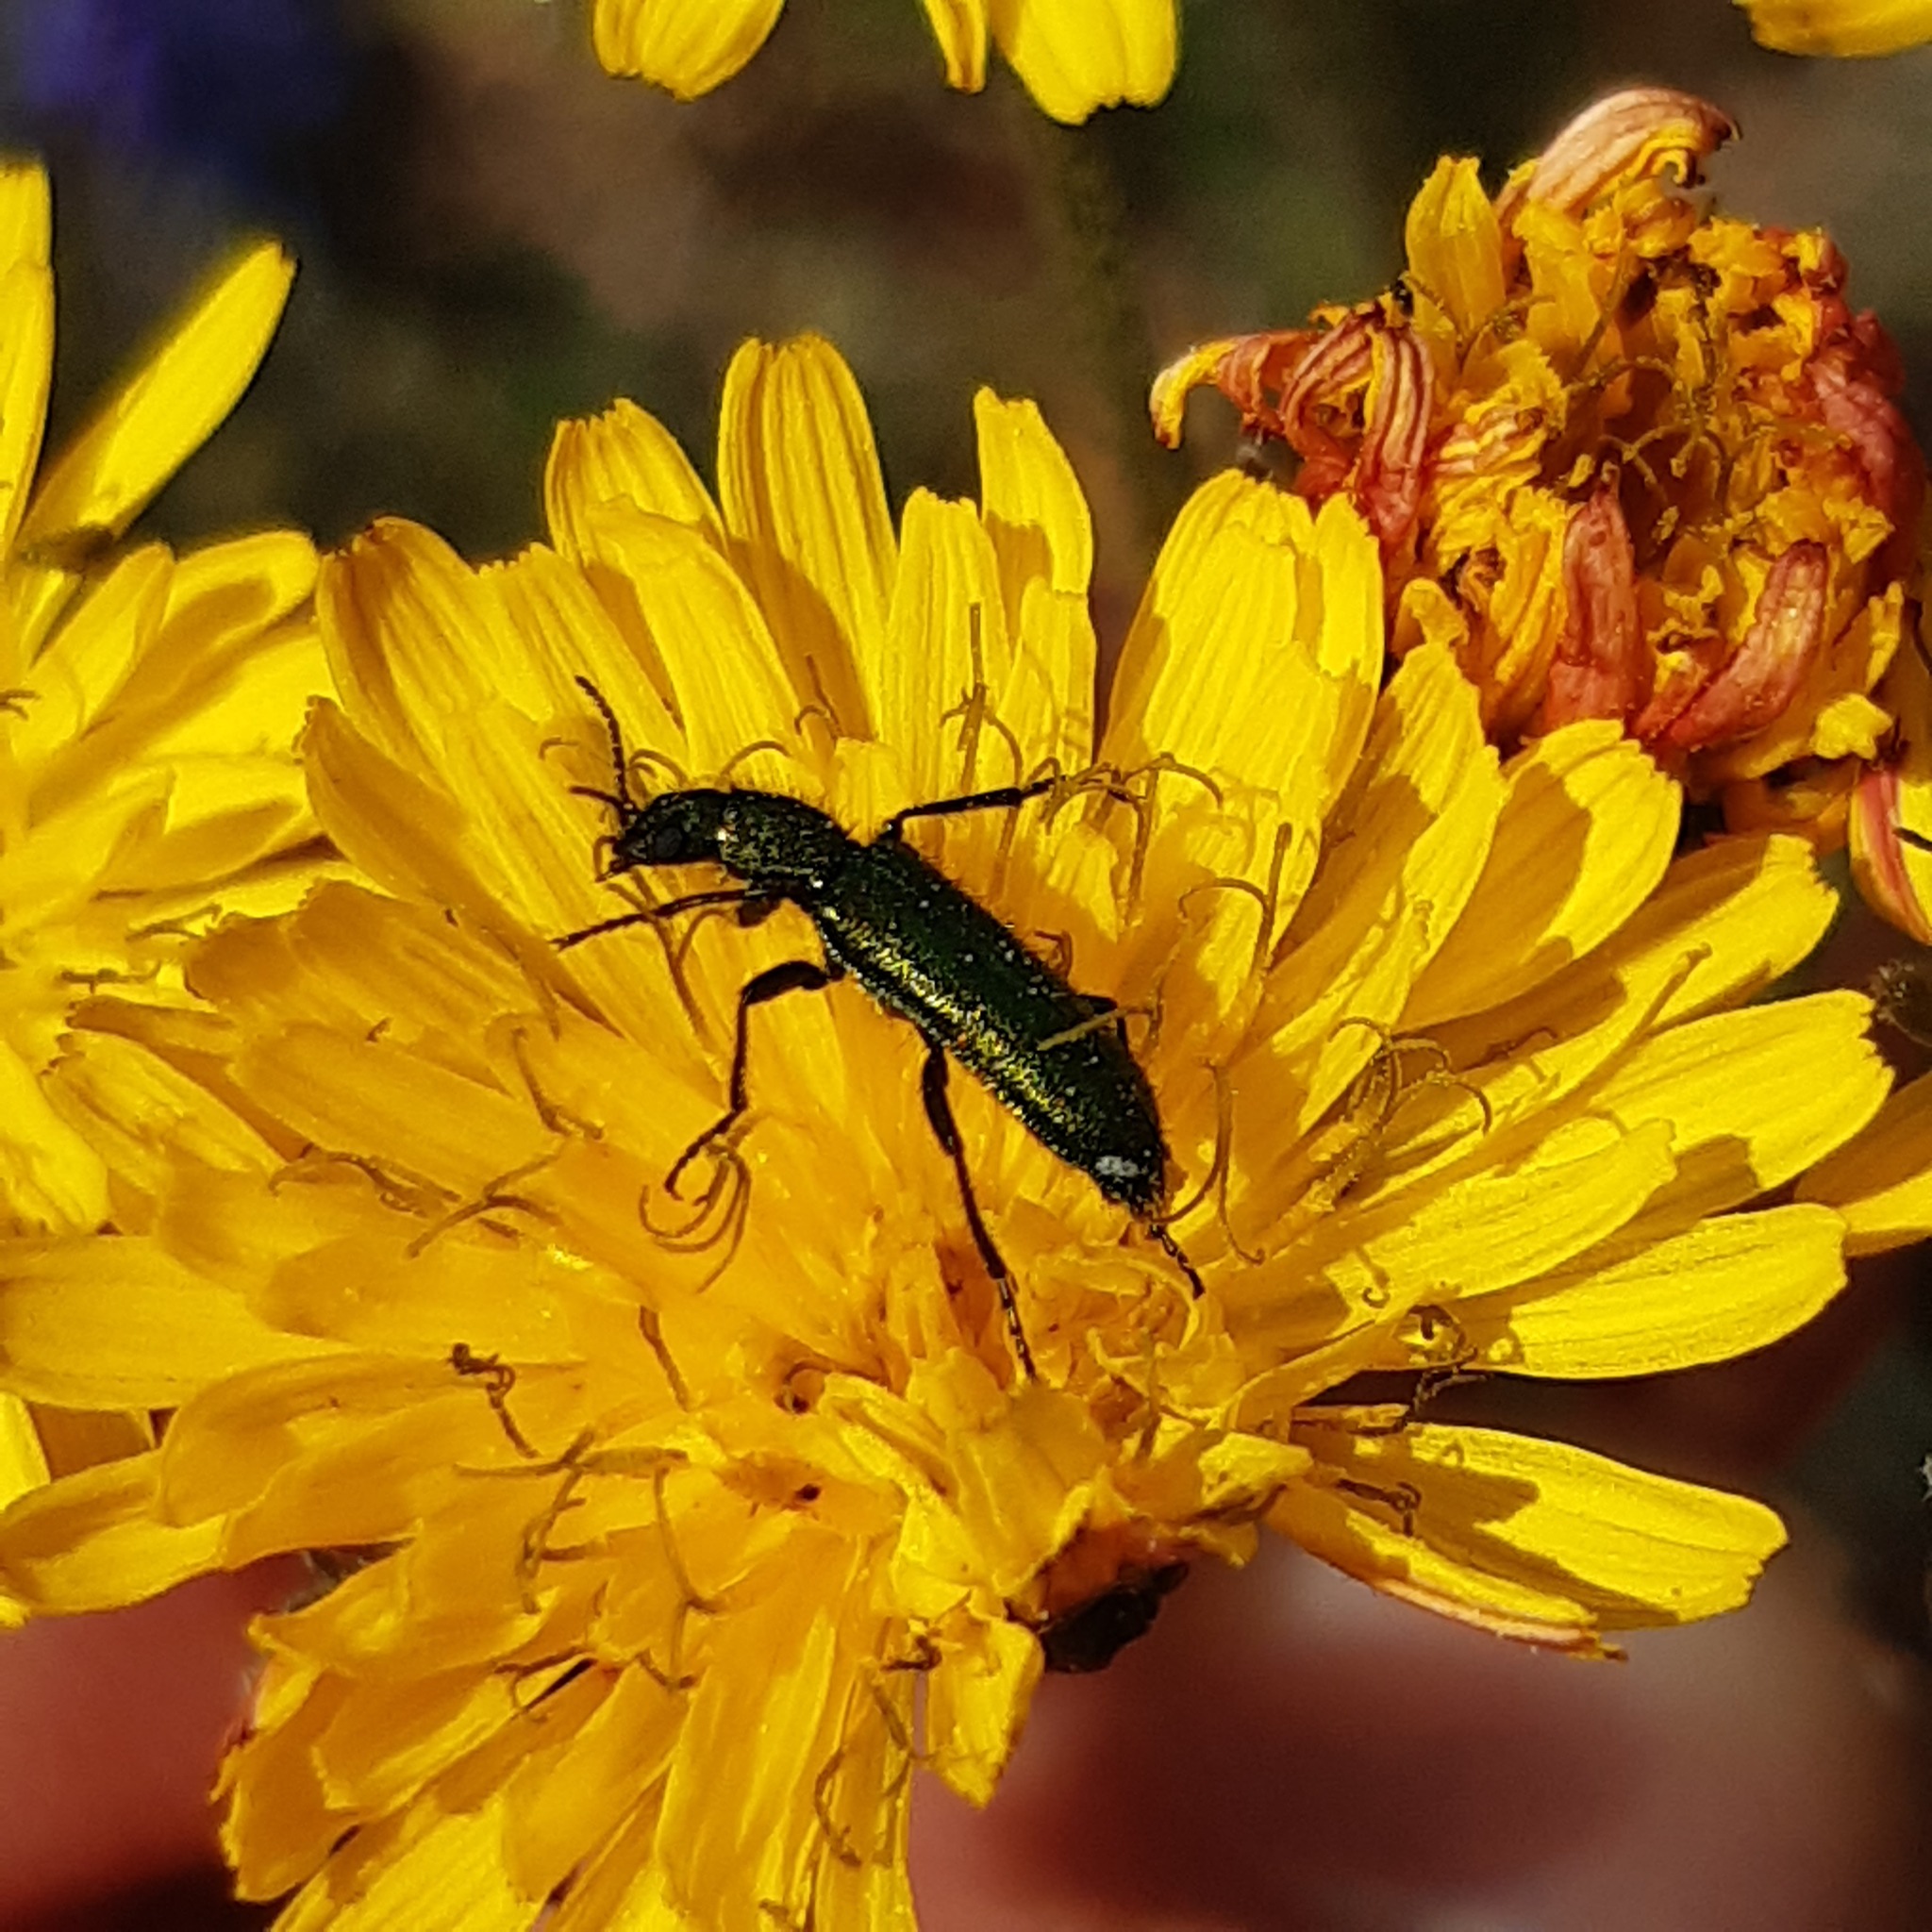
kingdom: Animalia
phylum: Arthropoda
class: Insecta
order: Coleoptera
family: Dasytidae
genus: Psilothrix
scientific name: Psilothrix viridicoerulea
